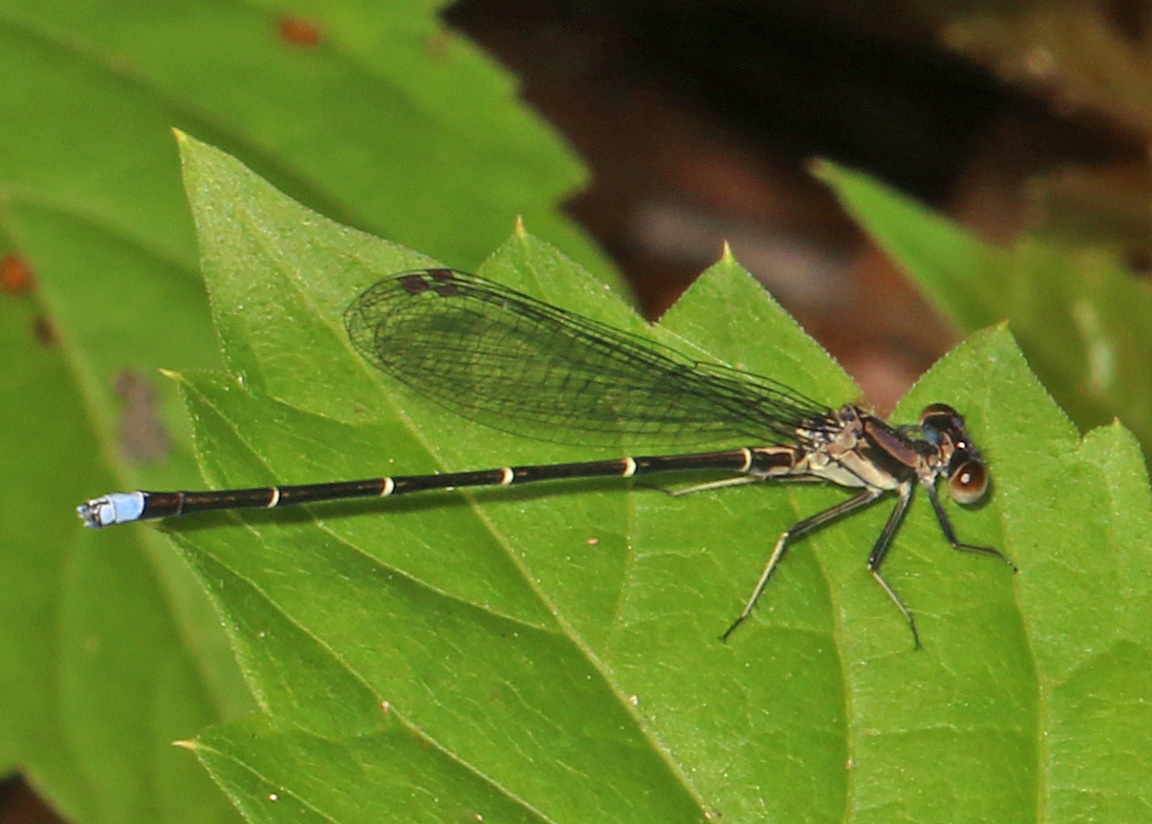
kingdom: Animalia
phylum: Arthropoda
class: Insecta
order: Odonata
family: Coenagrionidae
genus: Argia
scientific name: Argia tibialis
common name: Blue-tipped dancer
